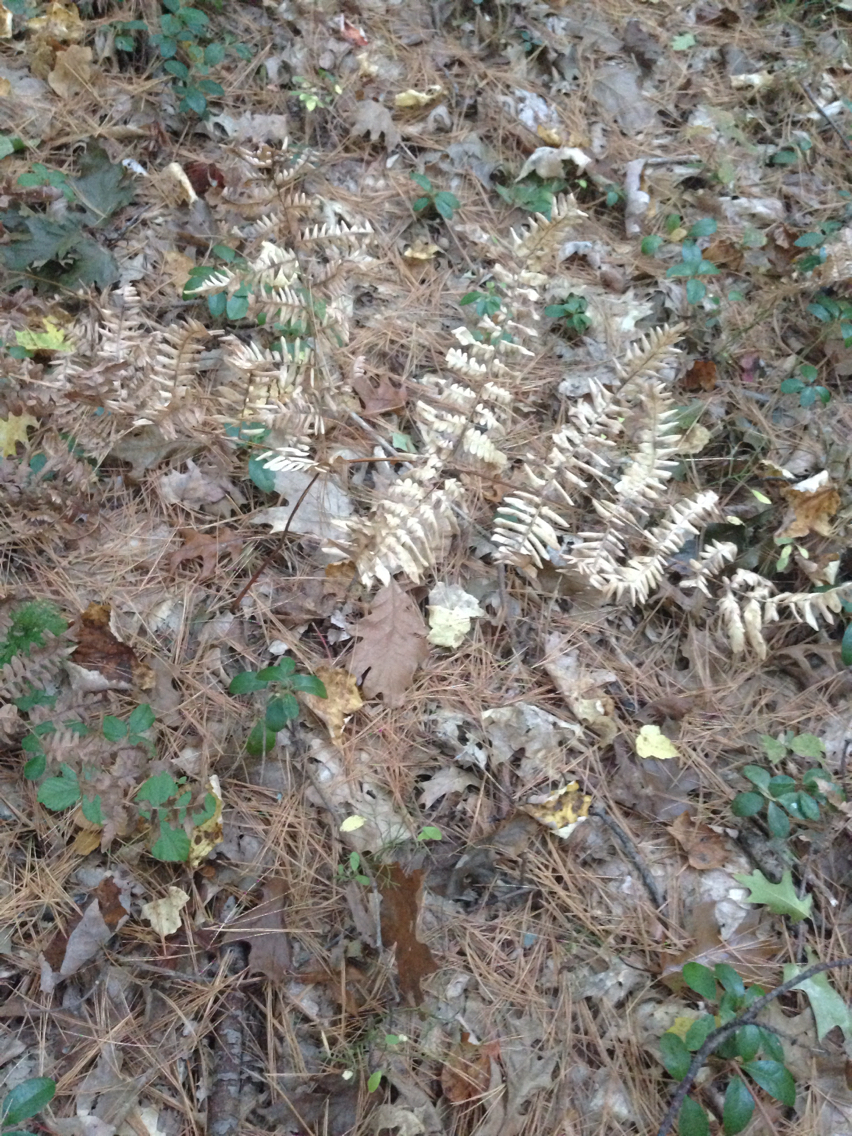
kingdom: Plantae
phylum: Tracheophyta
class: Polypodiopsida
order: Polypodiales
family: Dennstaedtiaceae
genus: Pteridium
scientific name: Pteridium aquilinum
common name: Bracken
